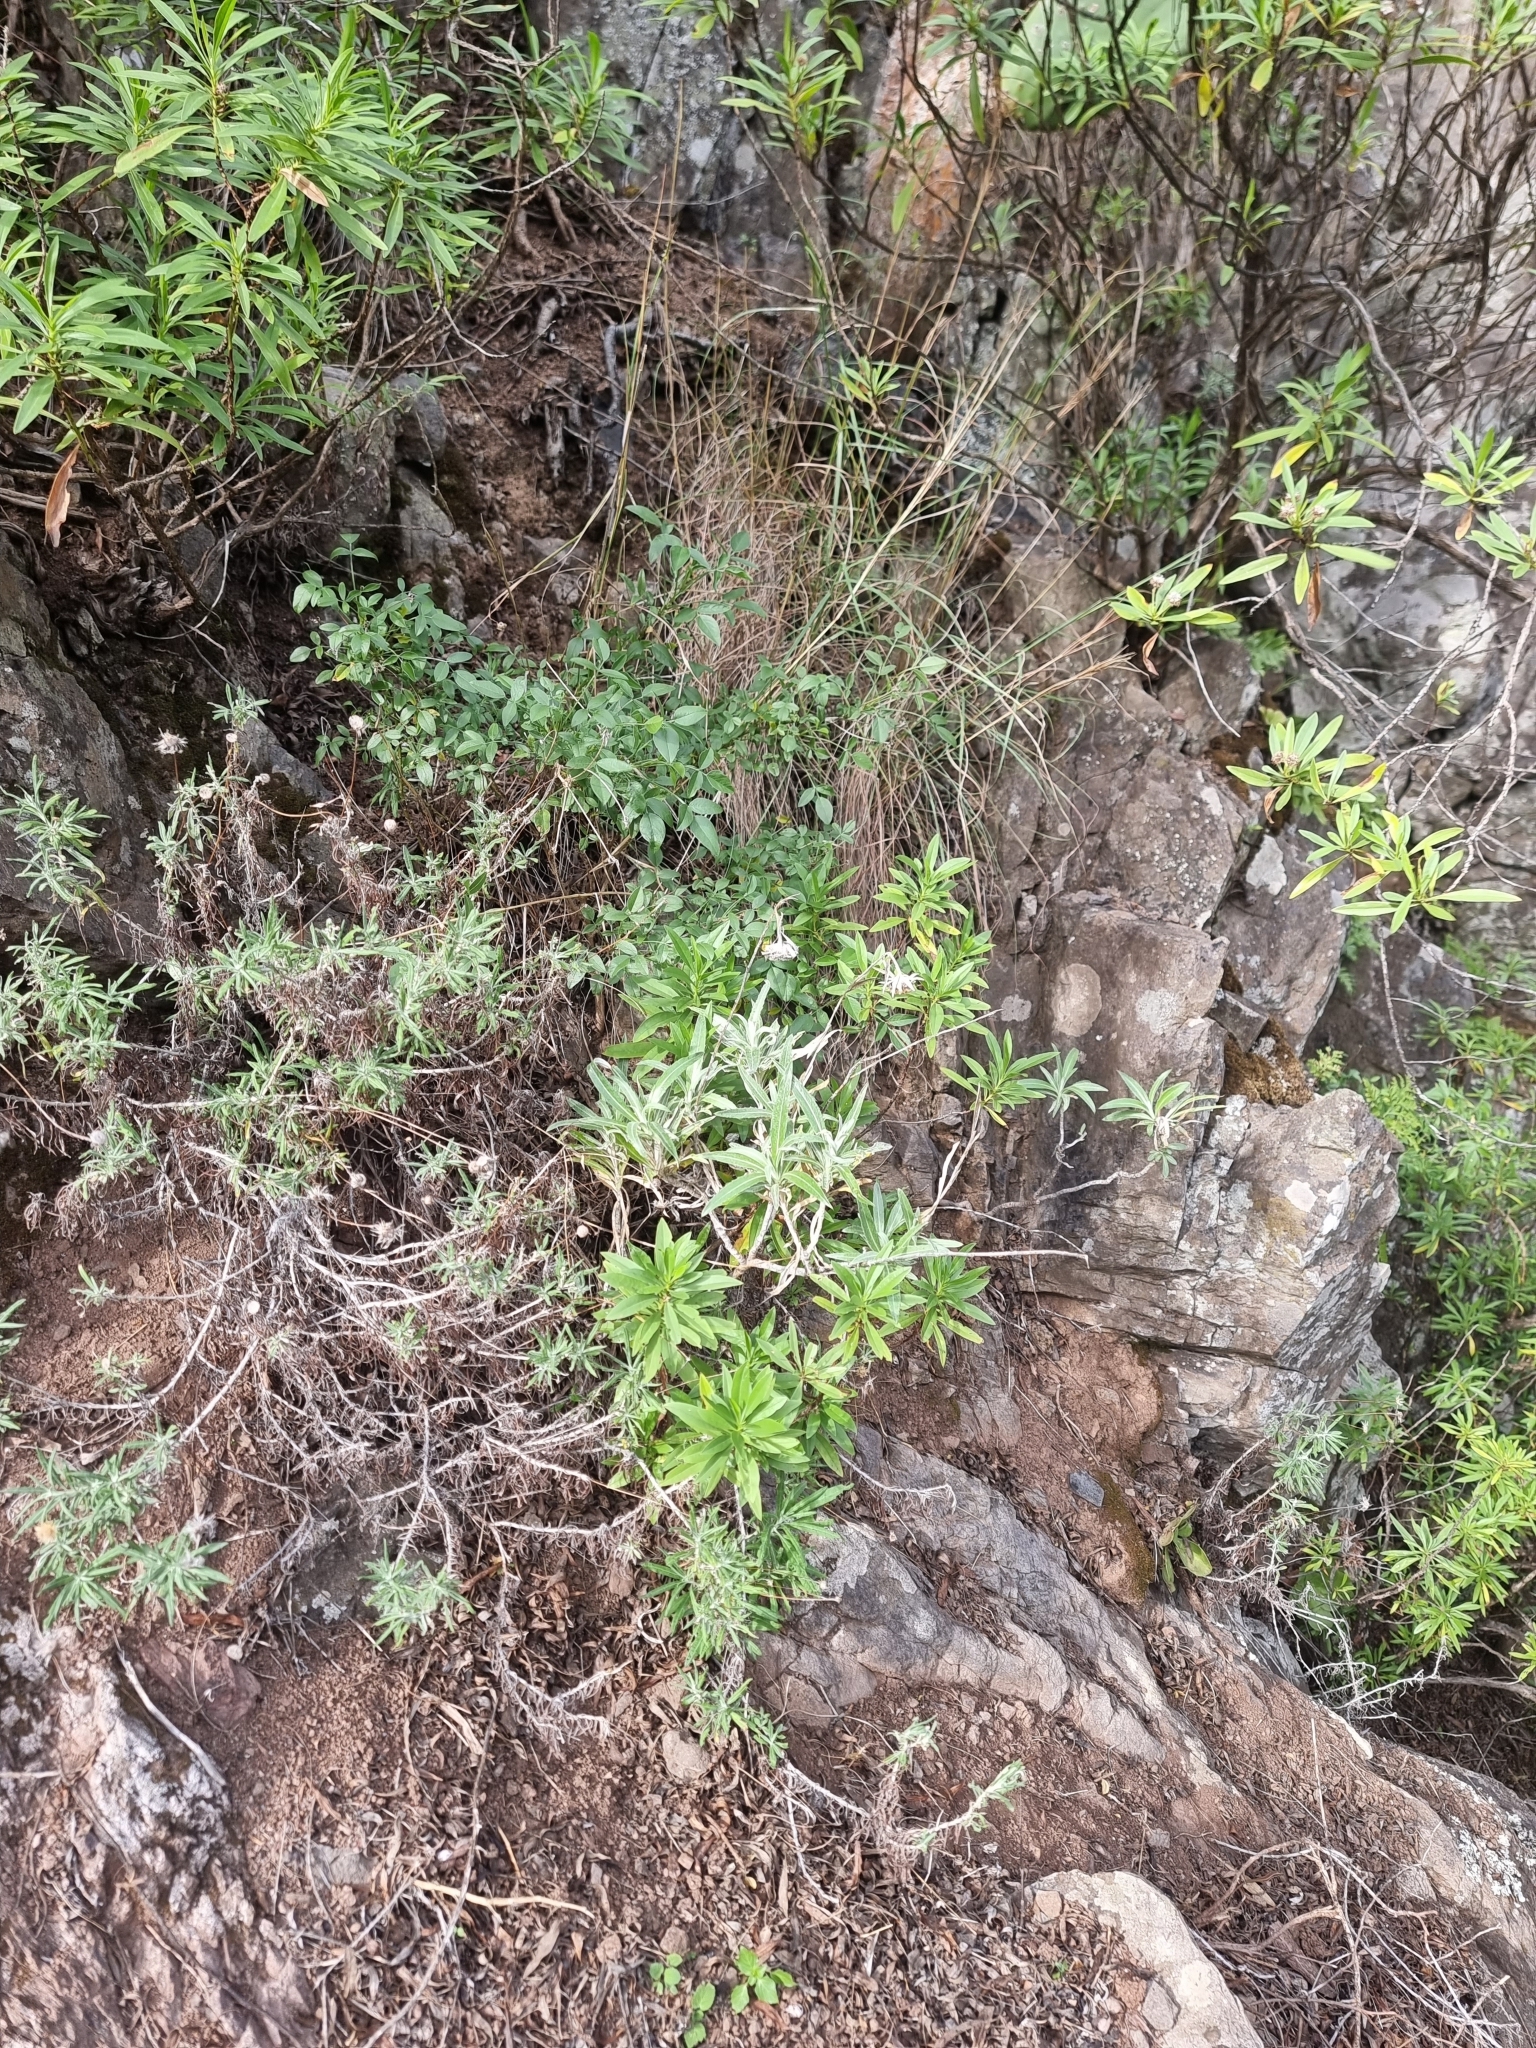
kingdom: Plantae
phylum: Tracheophyta
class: Magnoliopsida
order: Asterales
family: Asteraceae
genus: Carlina
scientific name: Carlina salicifolia
